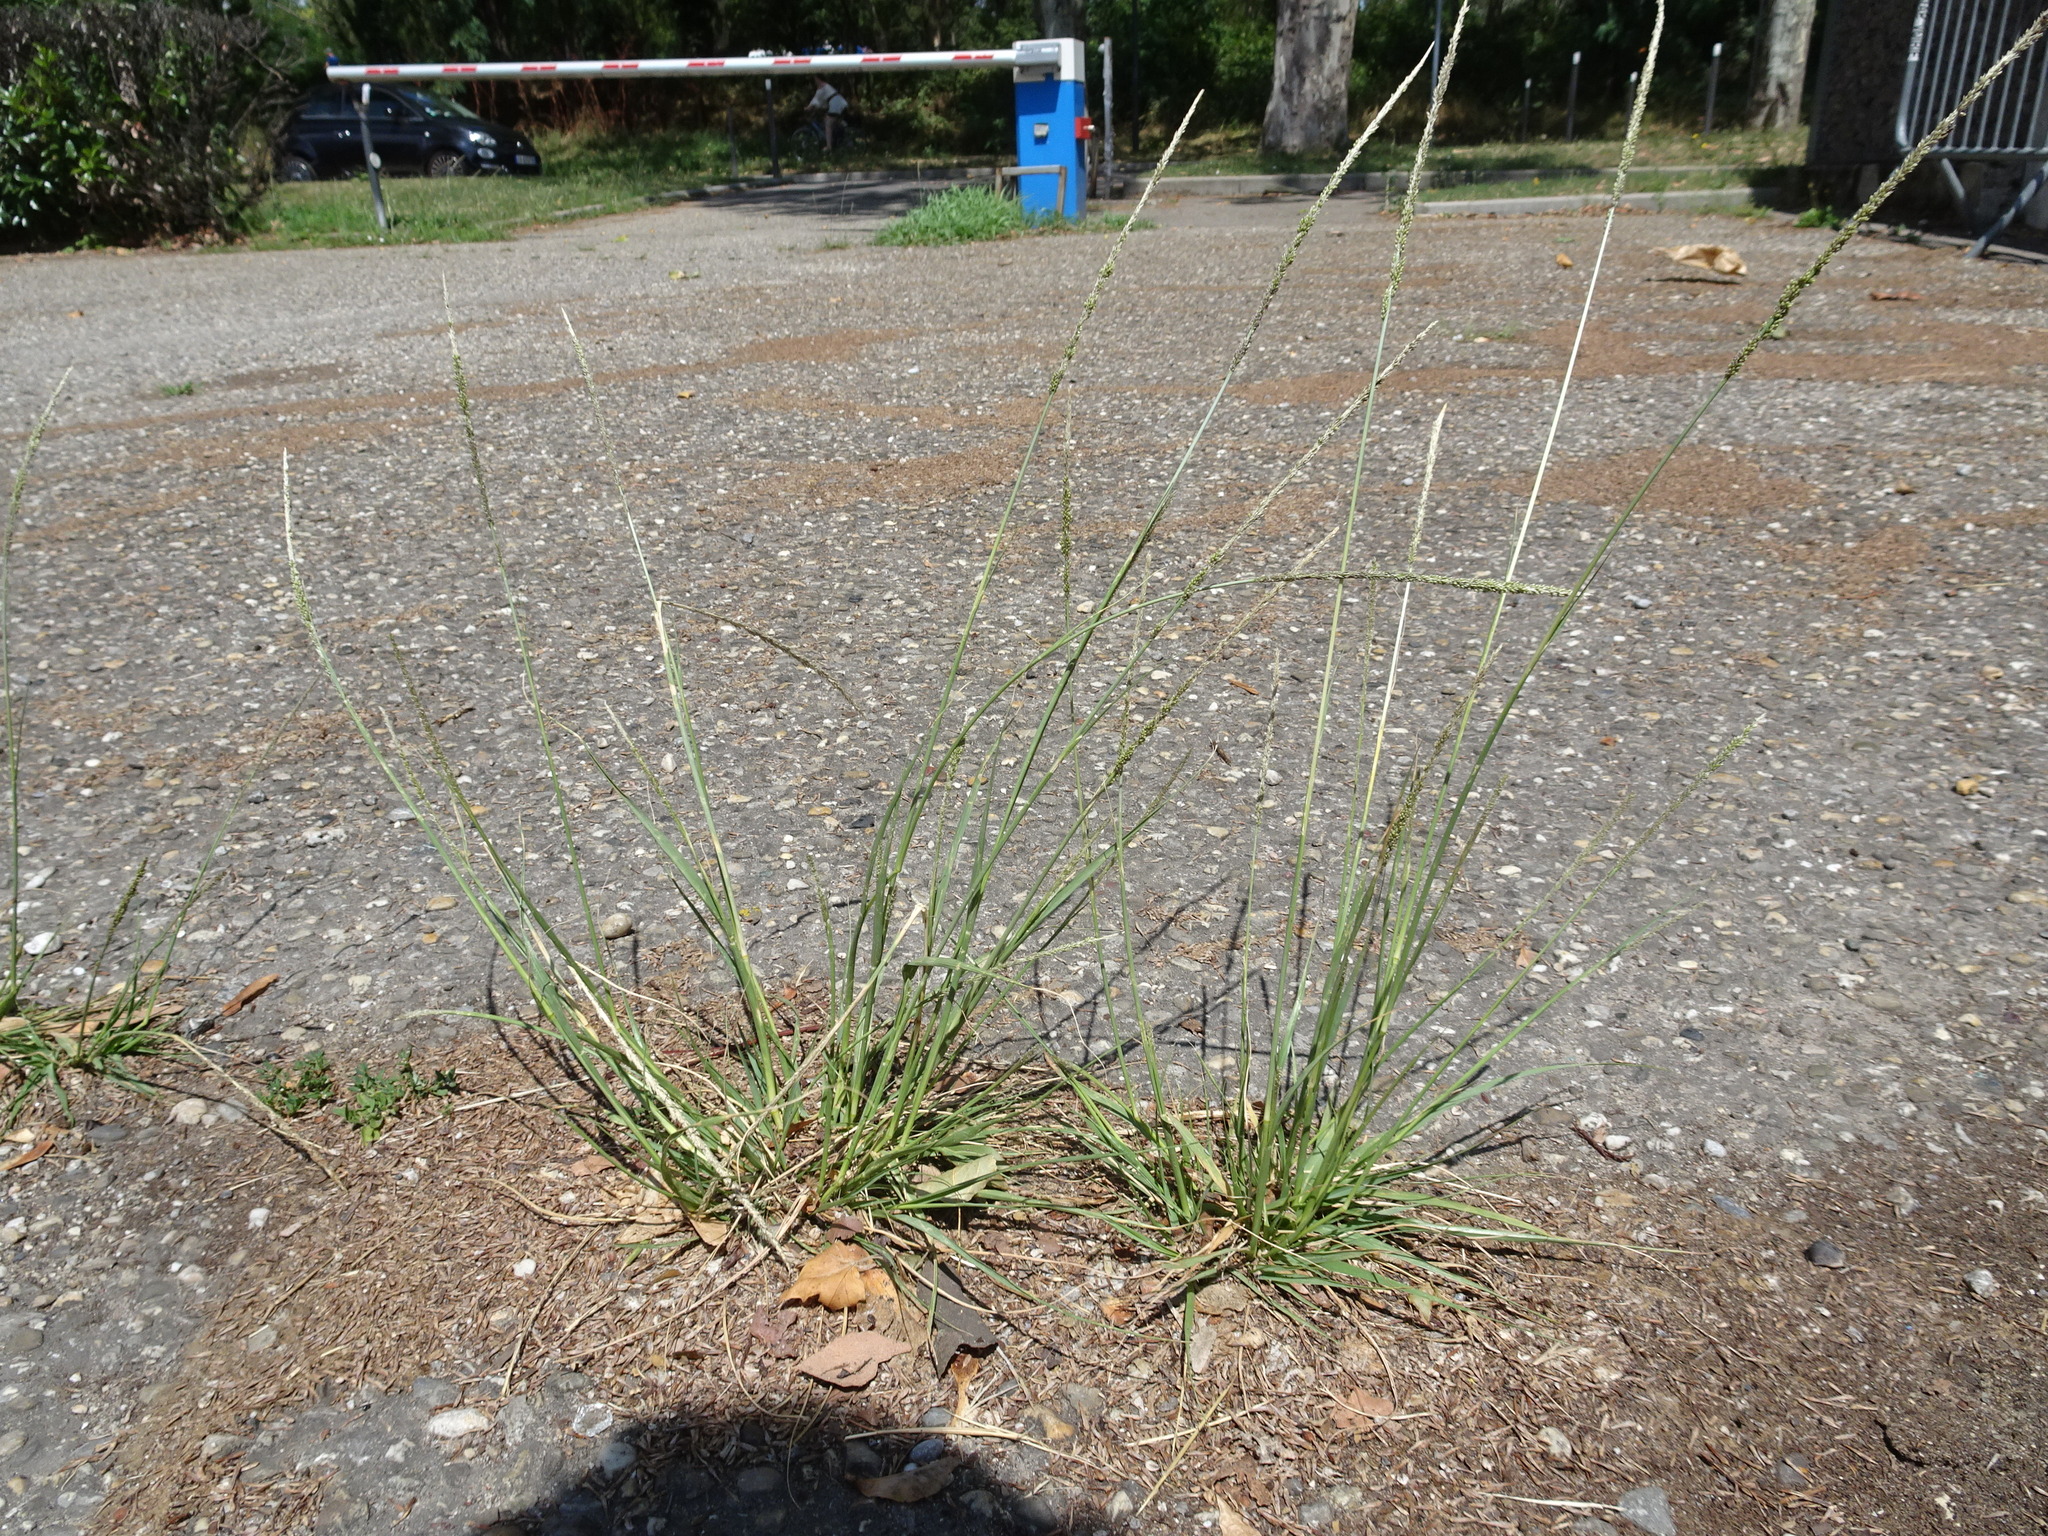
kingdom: Plantae
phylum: Tracheophyta
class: Liliopsida
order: Poales
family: Poaceae
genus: Sporobolus
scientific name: Sporobolus indicus
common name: Smut grass
